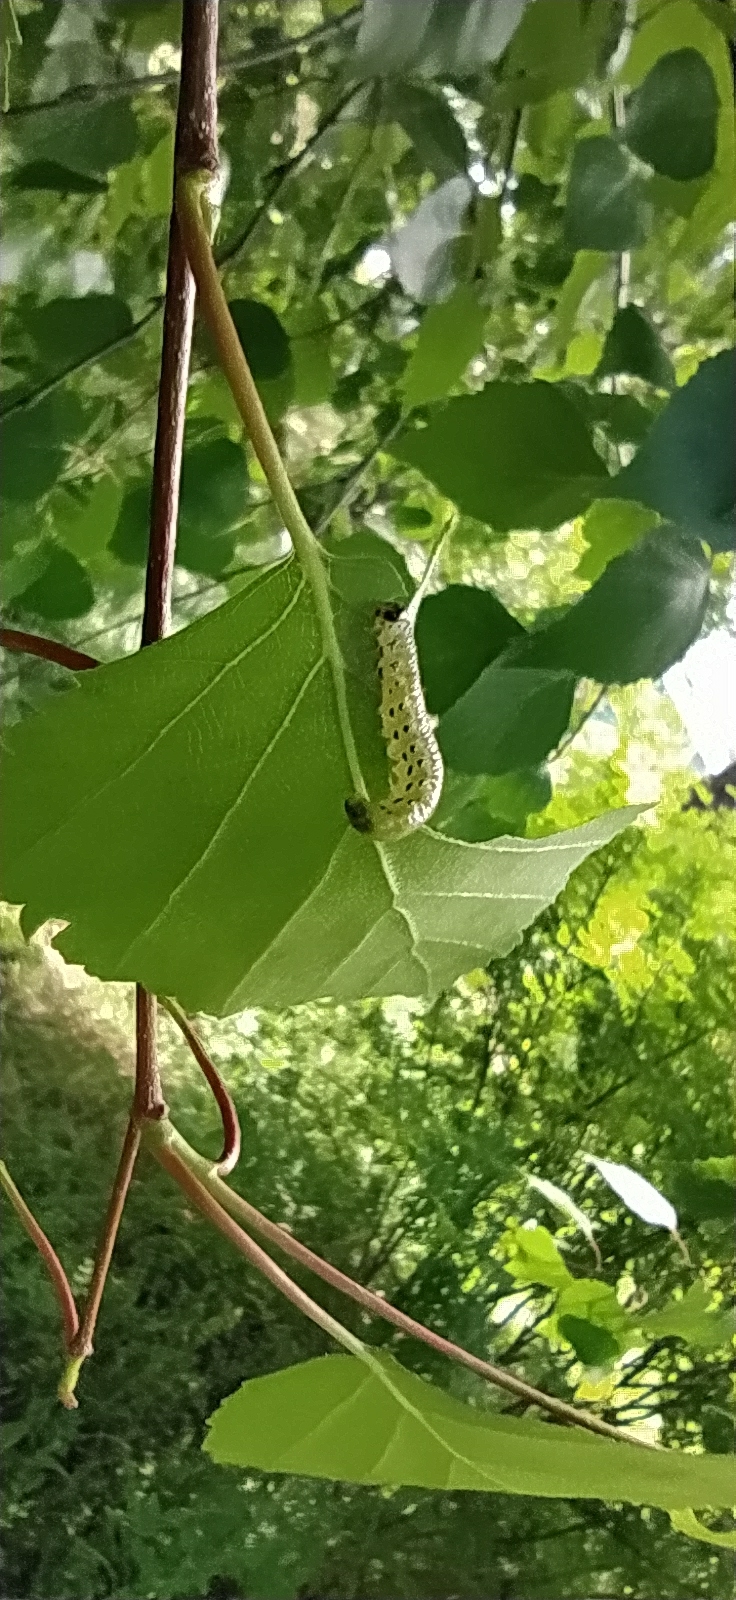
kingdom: Animalia
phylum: Arthropoda
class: Insecta
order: Hymenoptera
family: Tenthredinidae
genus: Pristiphora
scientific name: Pristiphora alpestris
